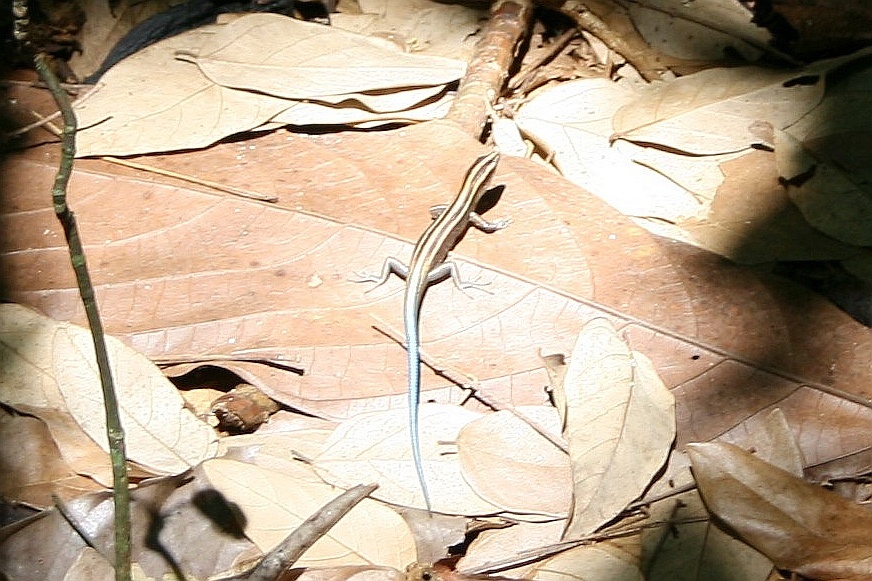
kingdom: Animalia
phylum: Chordata
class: Squamata
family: Scincidae
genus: Emoia
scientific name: Emoia impar
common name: Azure-tailed skink
